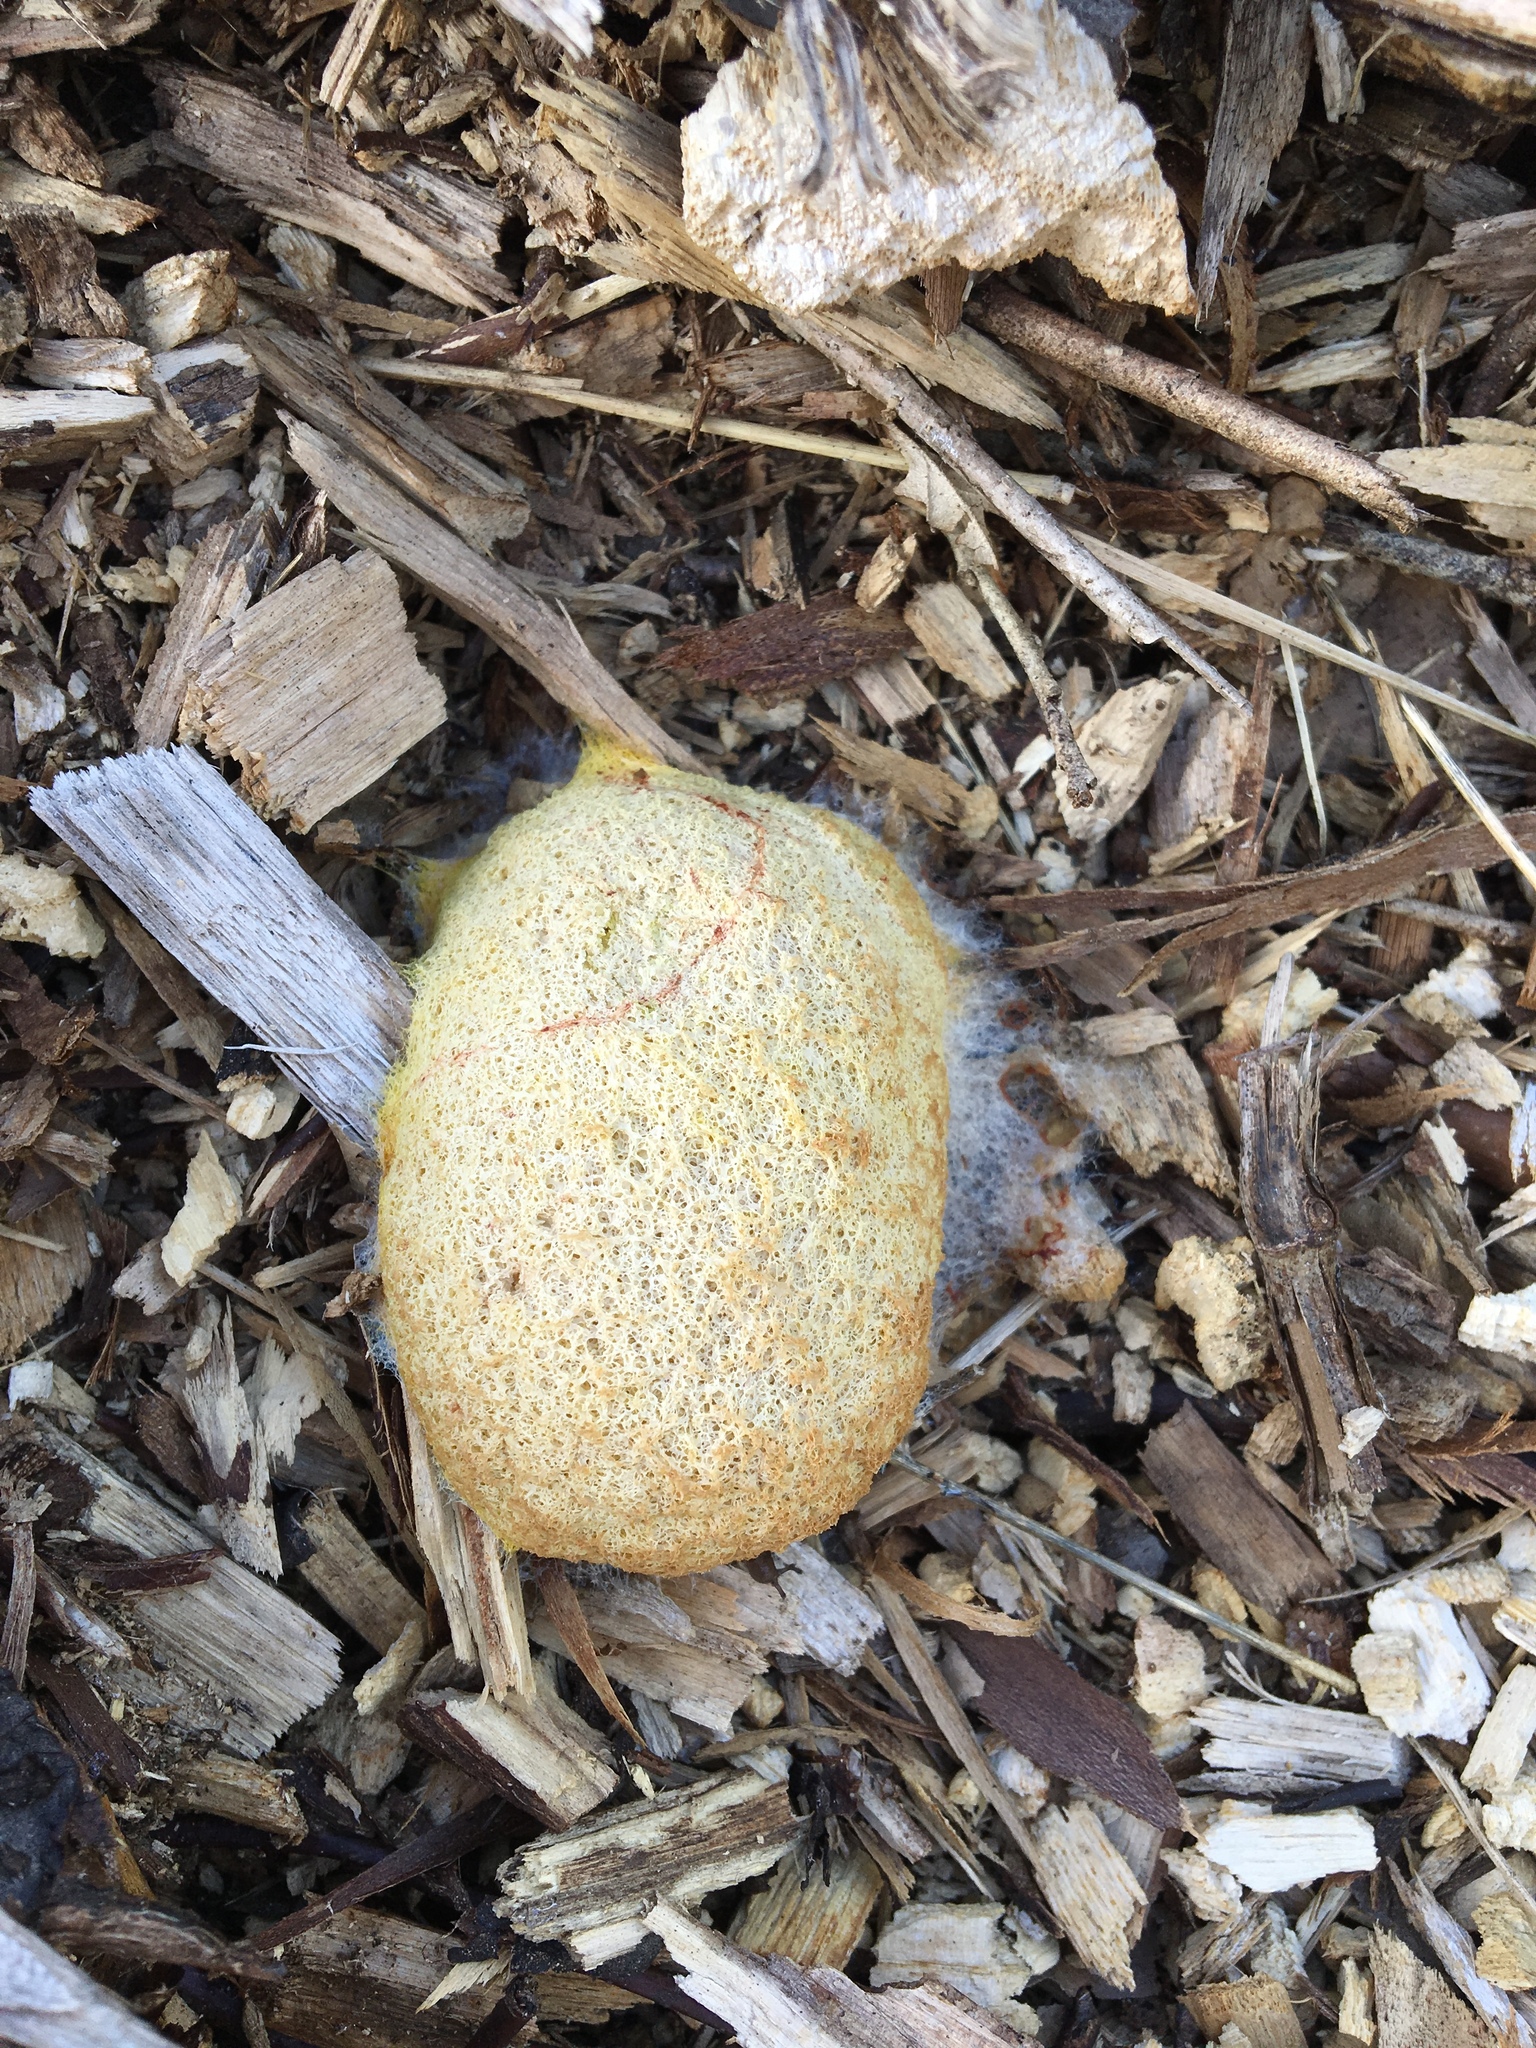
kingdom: Protozoa
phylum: Mycetozoa
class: Myxomycetes
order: Physarales
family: Physaraceae
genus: Fuligo
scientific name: Fuligo septica
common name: Dog vomit slime mold
